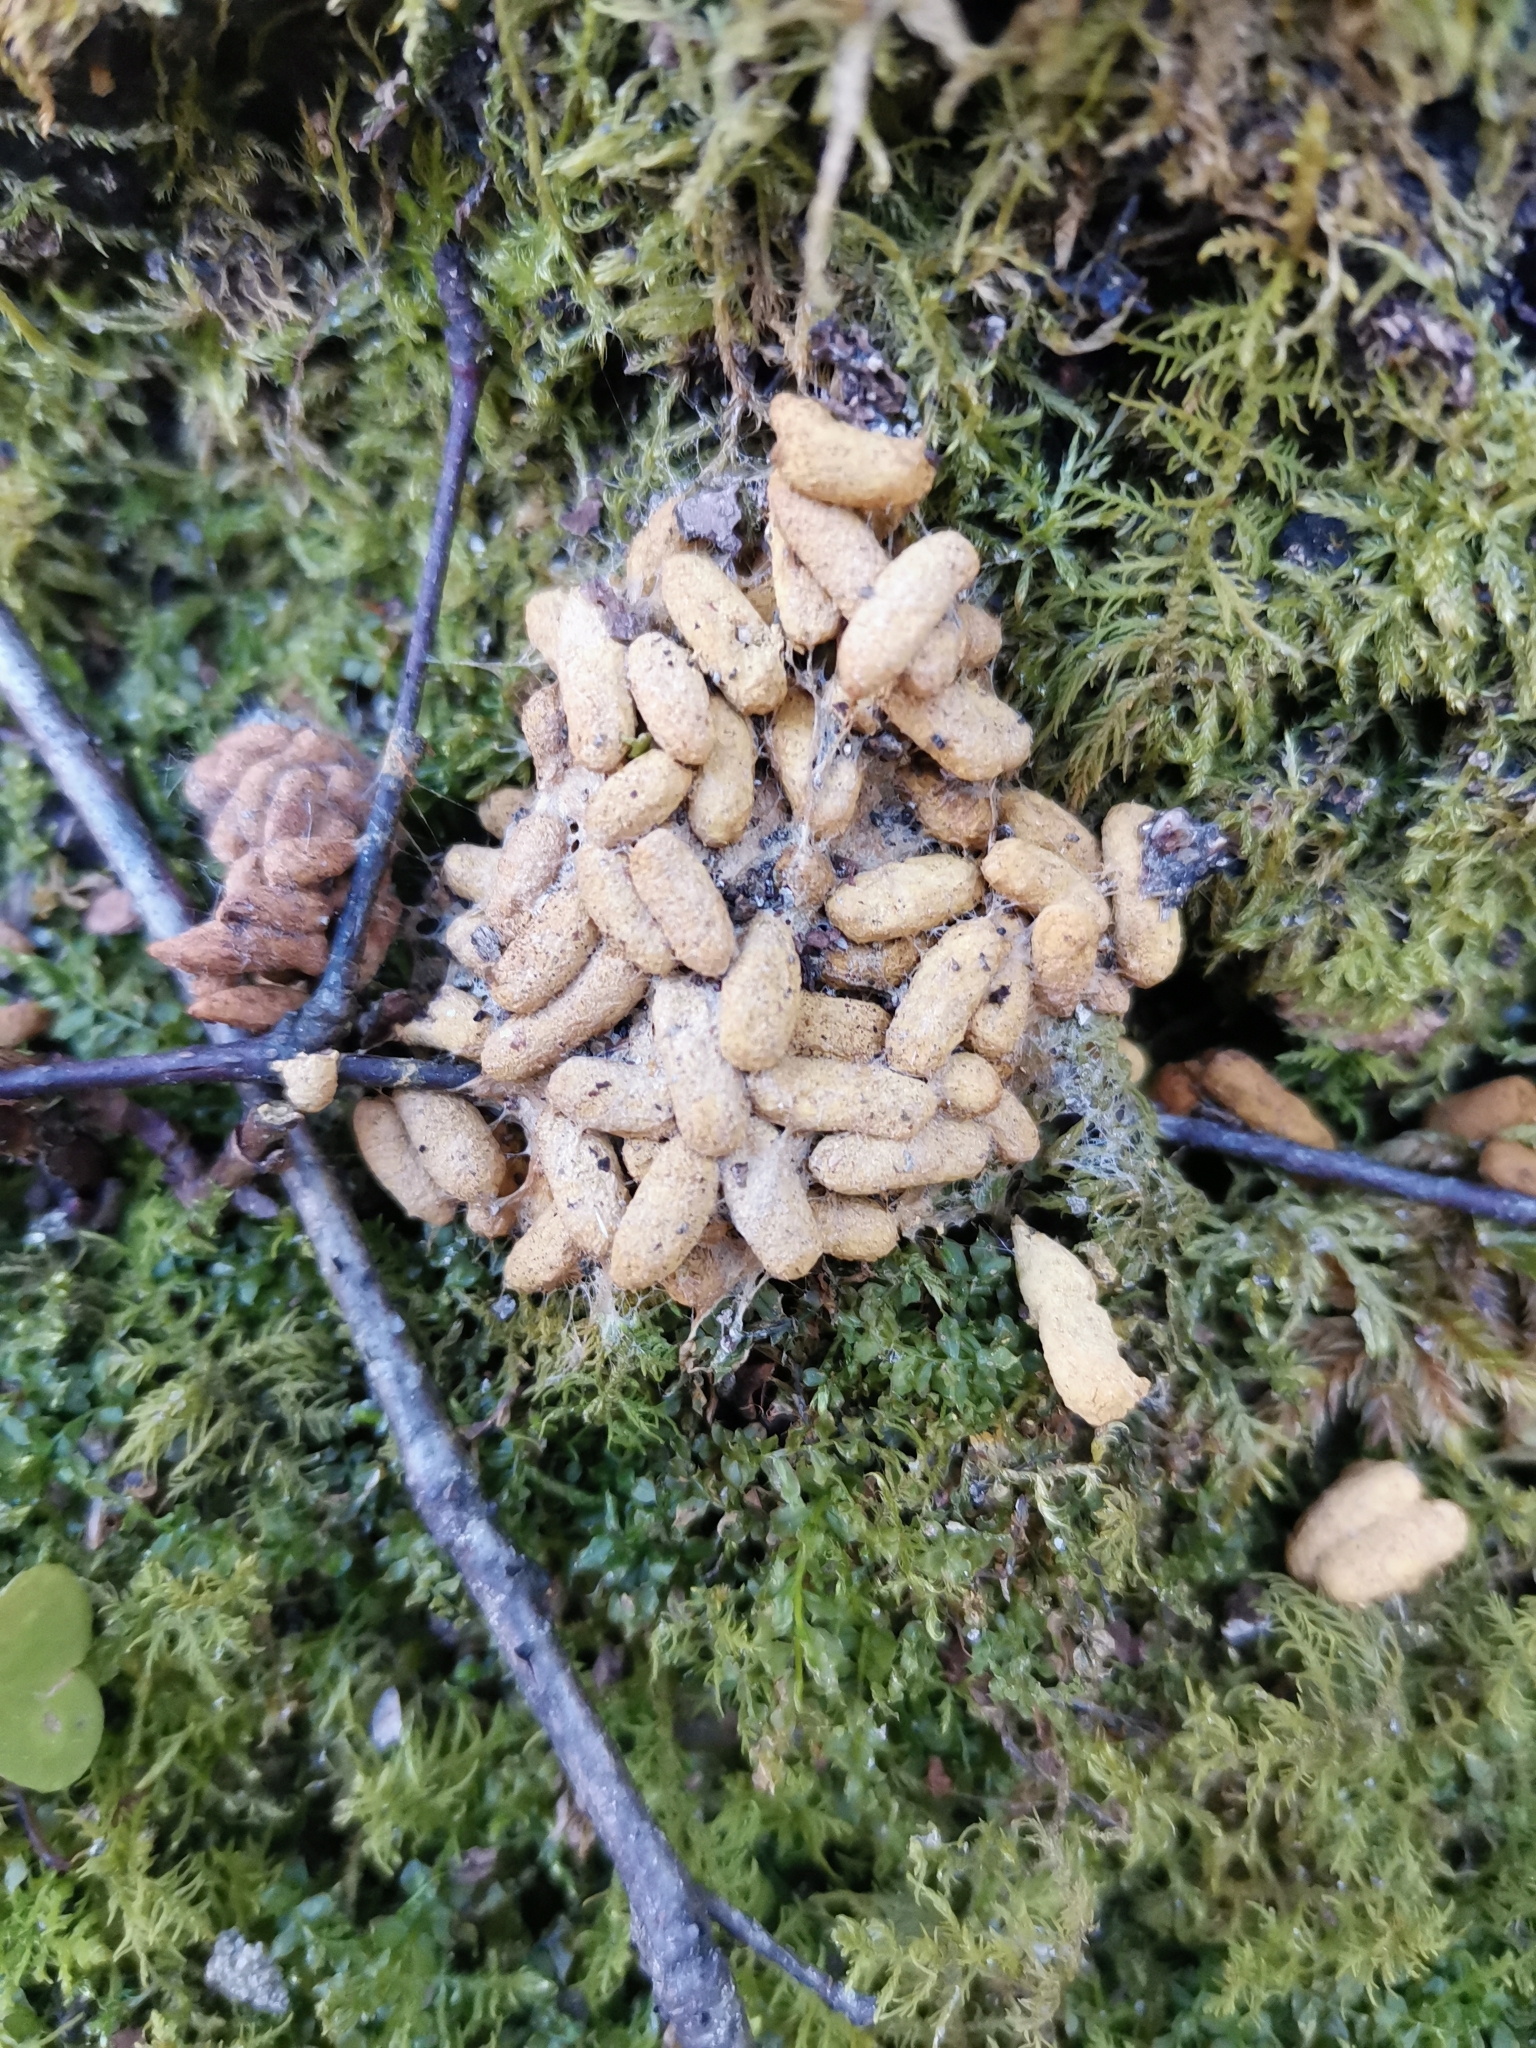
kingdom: Animalia
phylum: Chordata
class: Mammalia
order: Rodentia
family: Sciuridae
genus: Pteromys
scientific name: Pteromys volans
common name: Siberian flying squirrel
